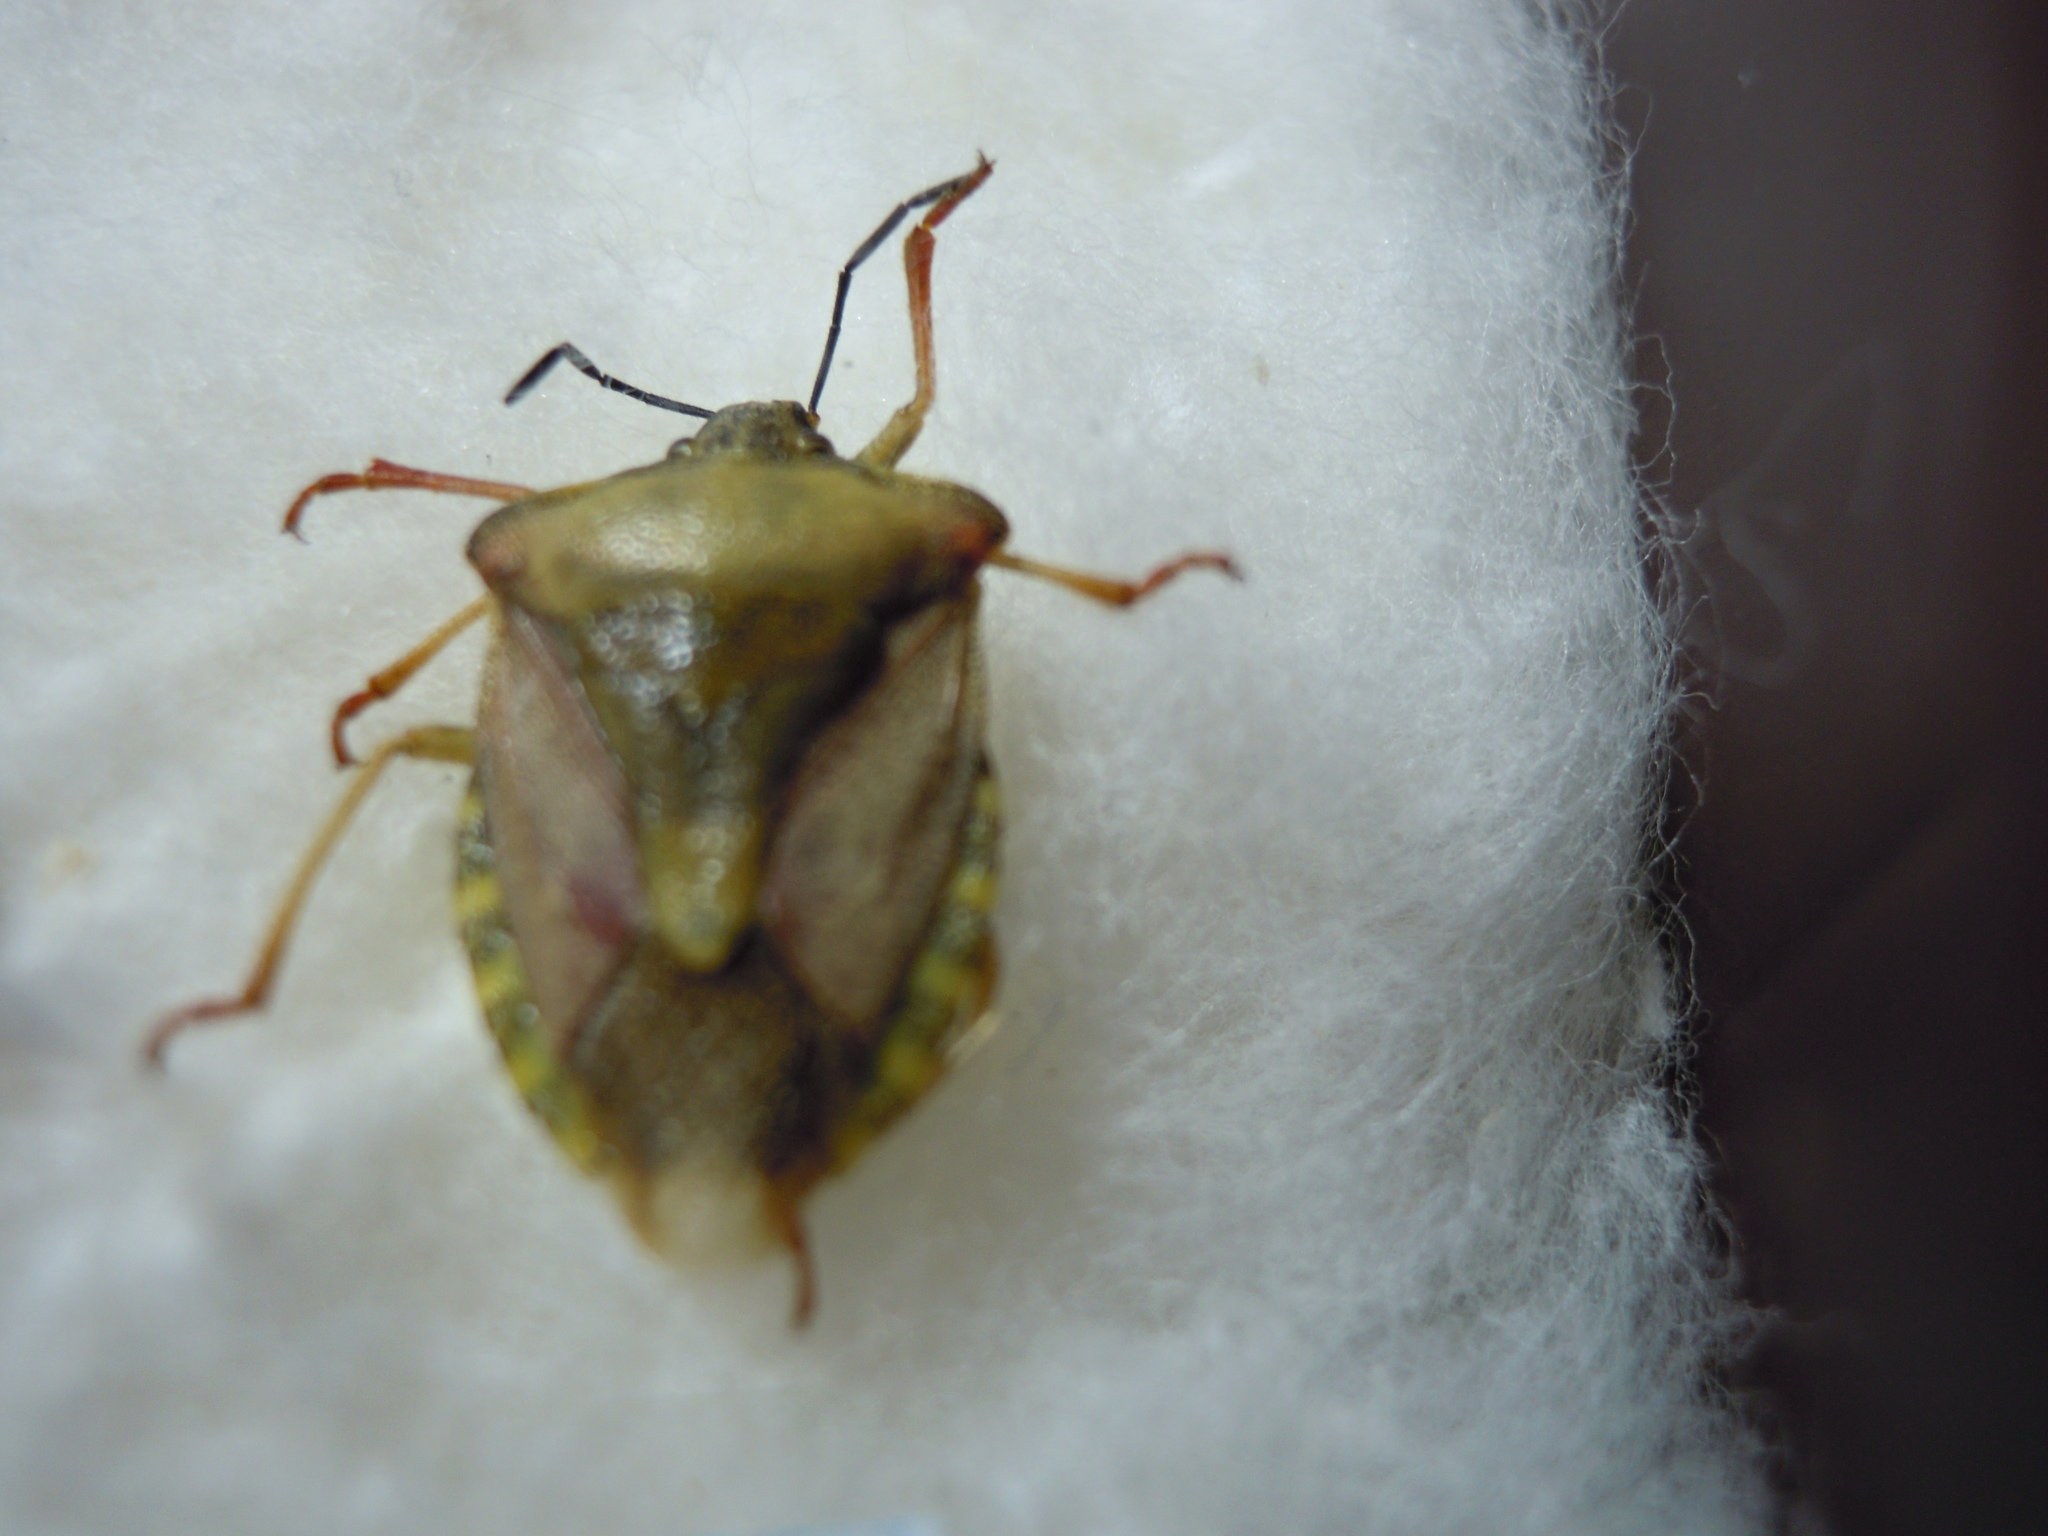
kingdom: Animalia
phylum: Arthropoda
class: Insecta
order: Hemiptera
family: Pentatomidae
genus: Carpocoris
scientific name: Carpocoris purpureipennis
